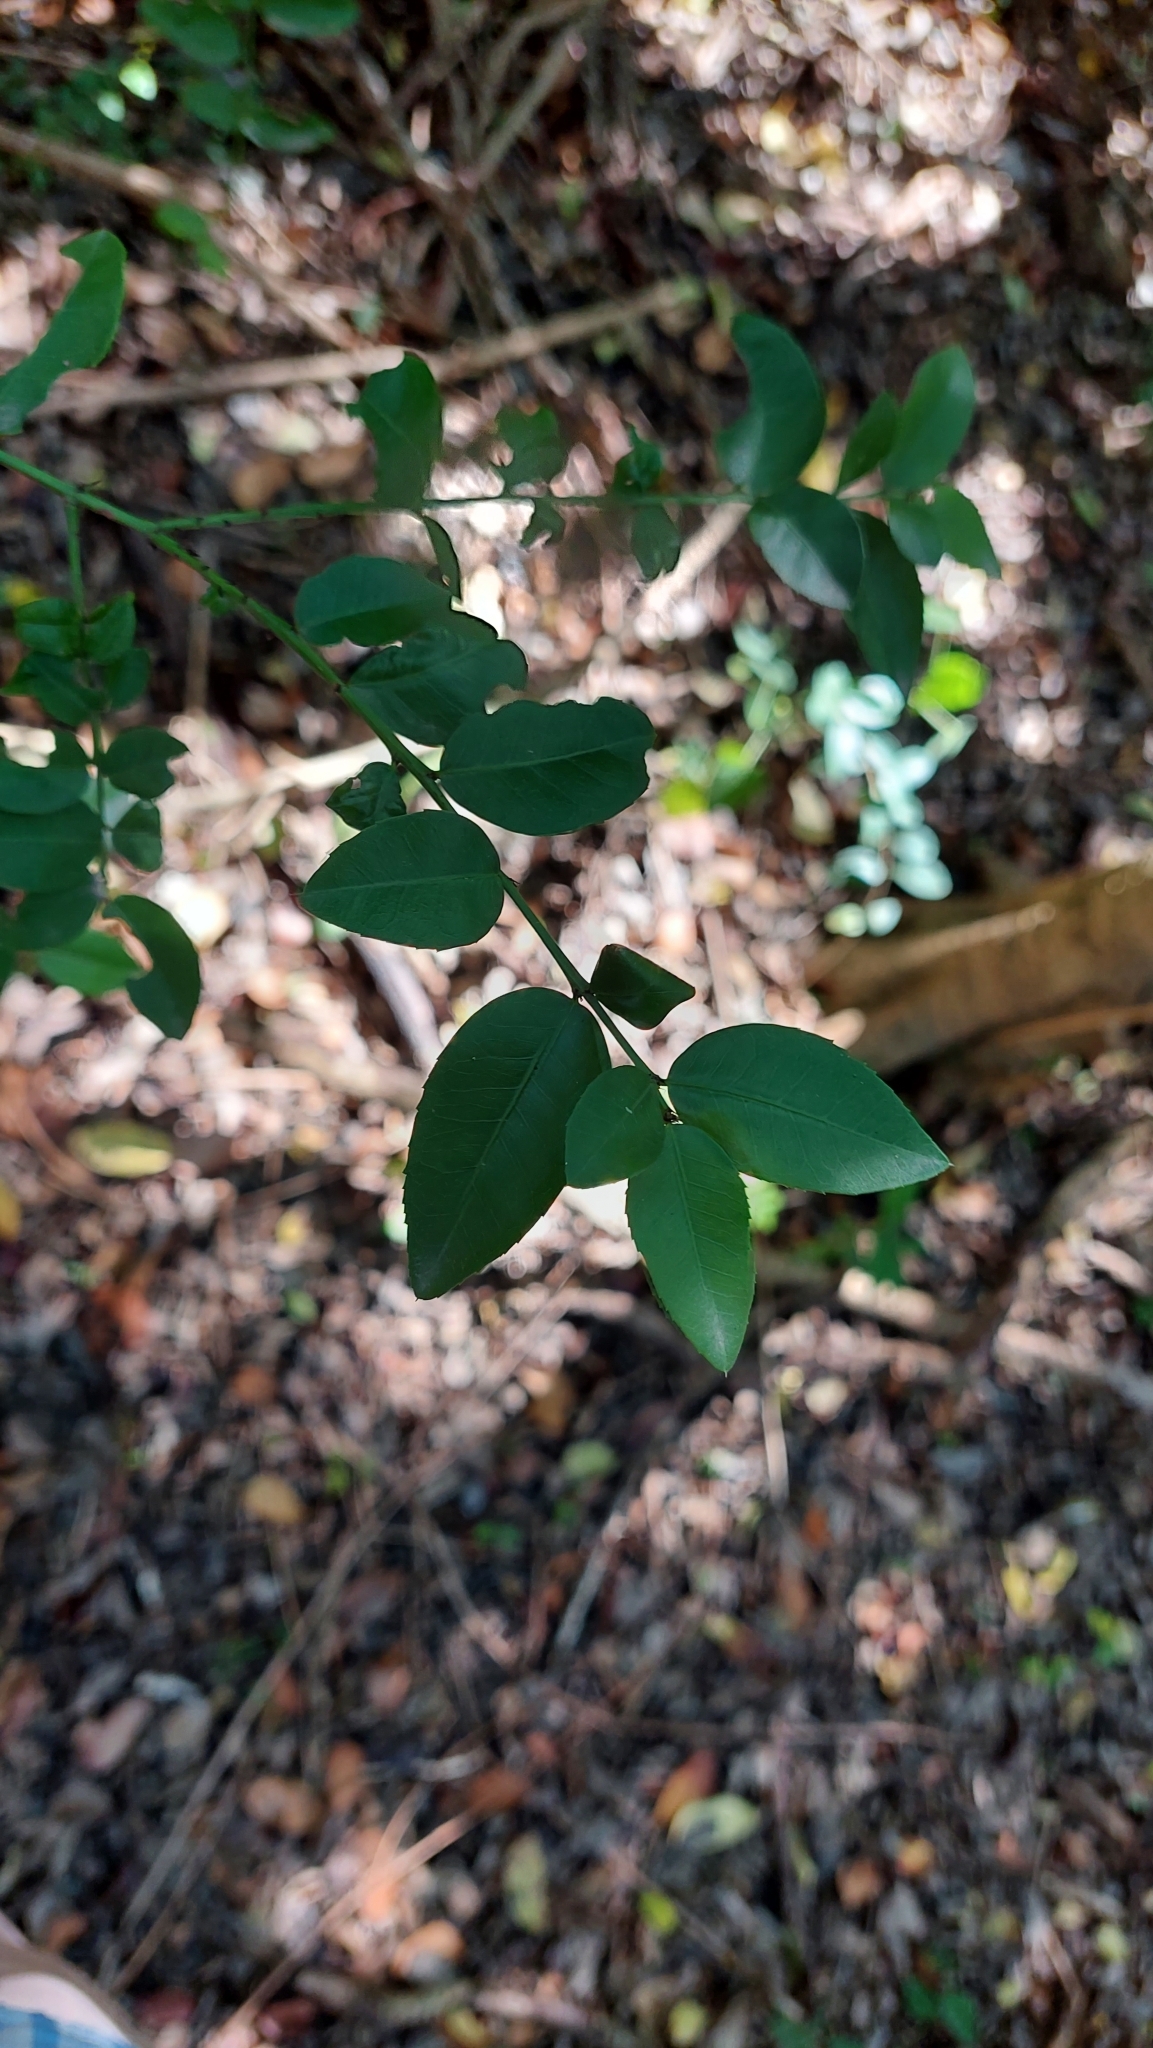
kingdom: Plantae
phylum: Tracheophyta
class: Magnoliopsida
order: Rosales
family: Rhamnaceae
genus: Scutia
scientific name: Scutia buxifolia
